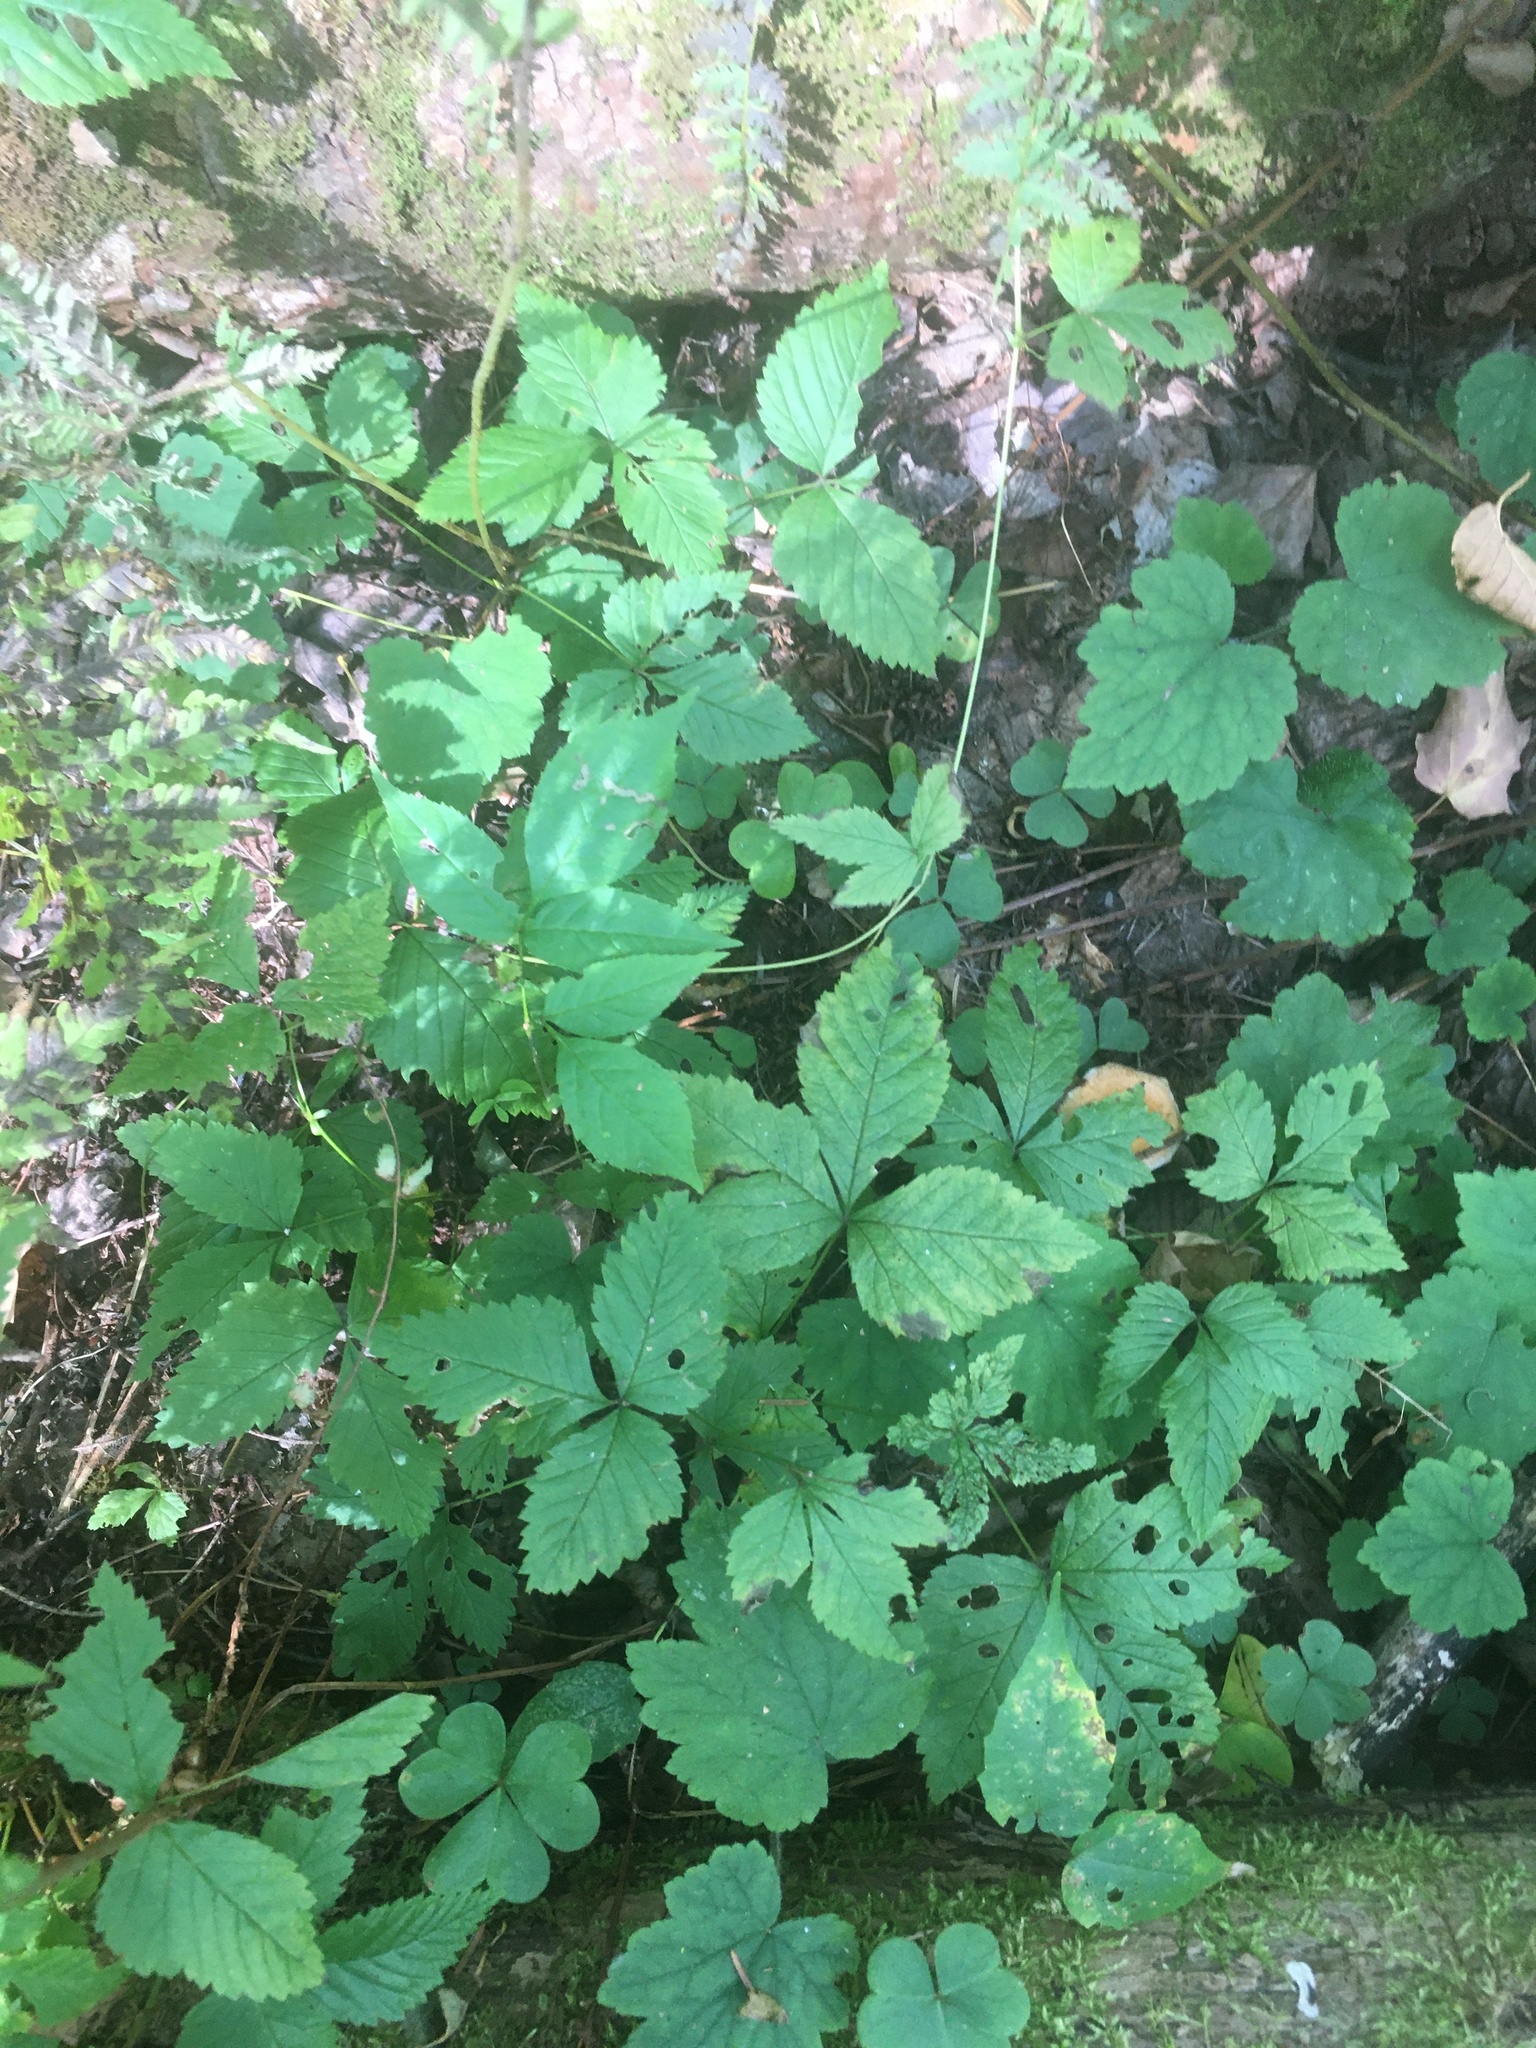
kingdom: Plantae
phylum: Tracheophyta
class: Magnoliopsida
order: Rosales
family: Rosaceae
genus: Rubus
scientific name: Rubus pubescens
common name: Dwarf raspberry
